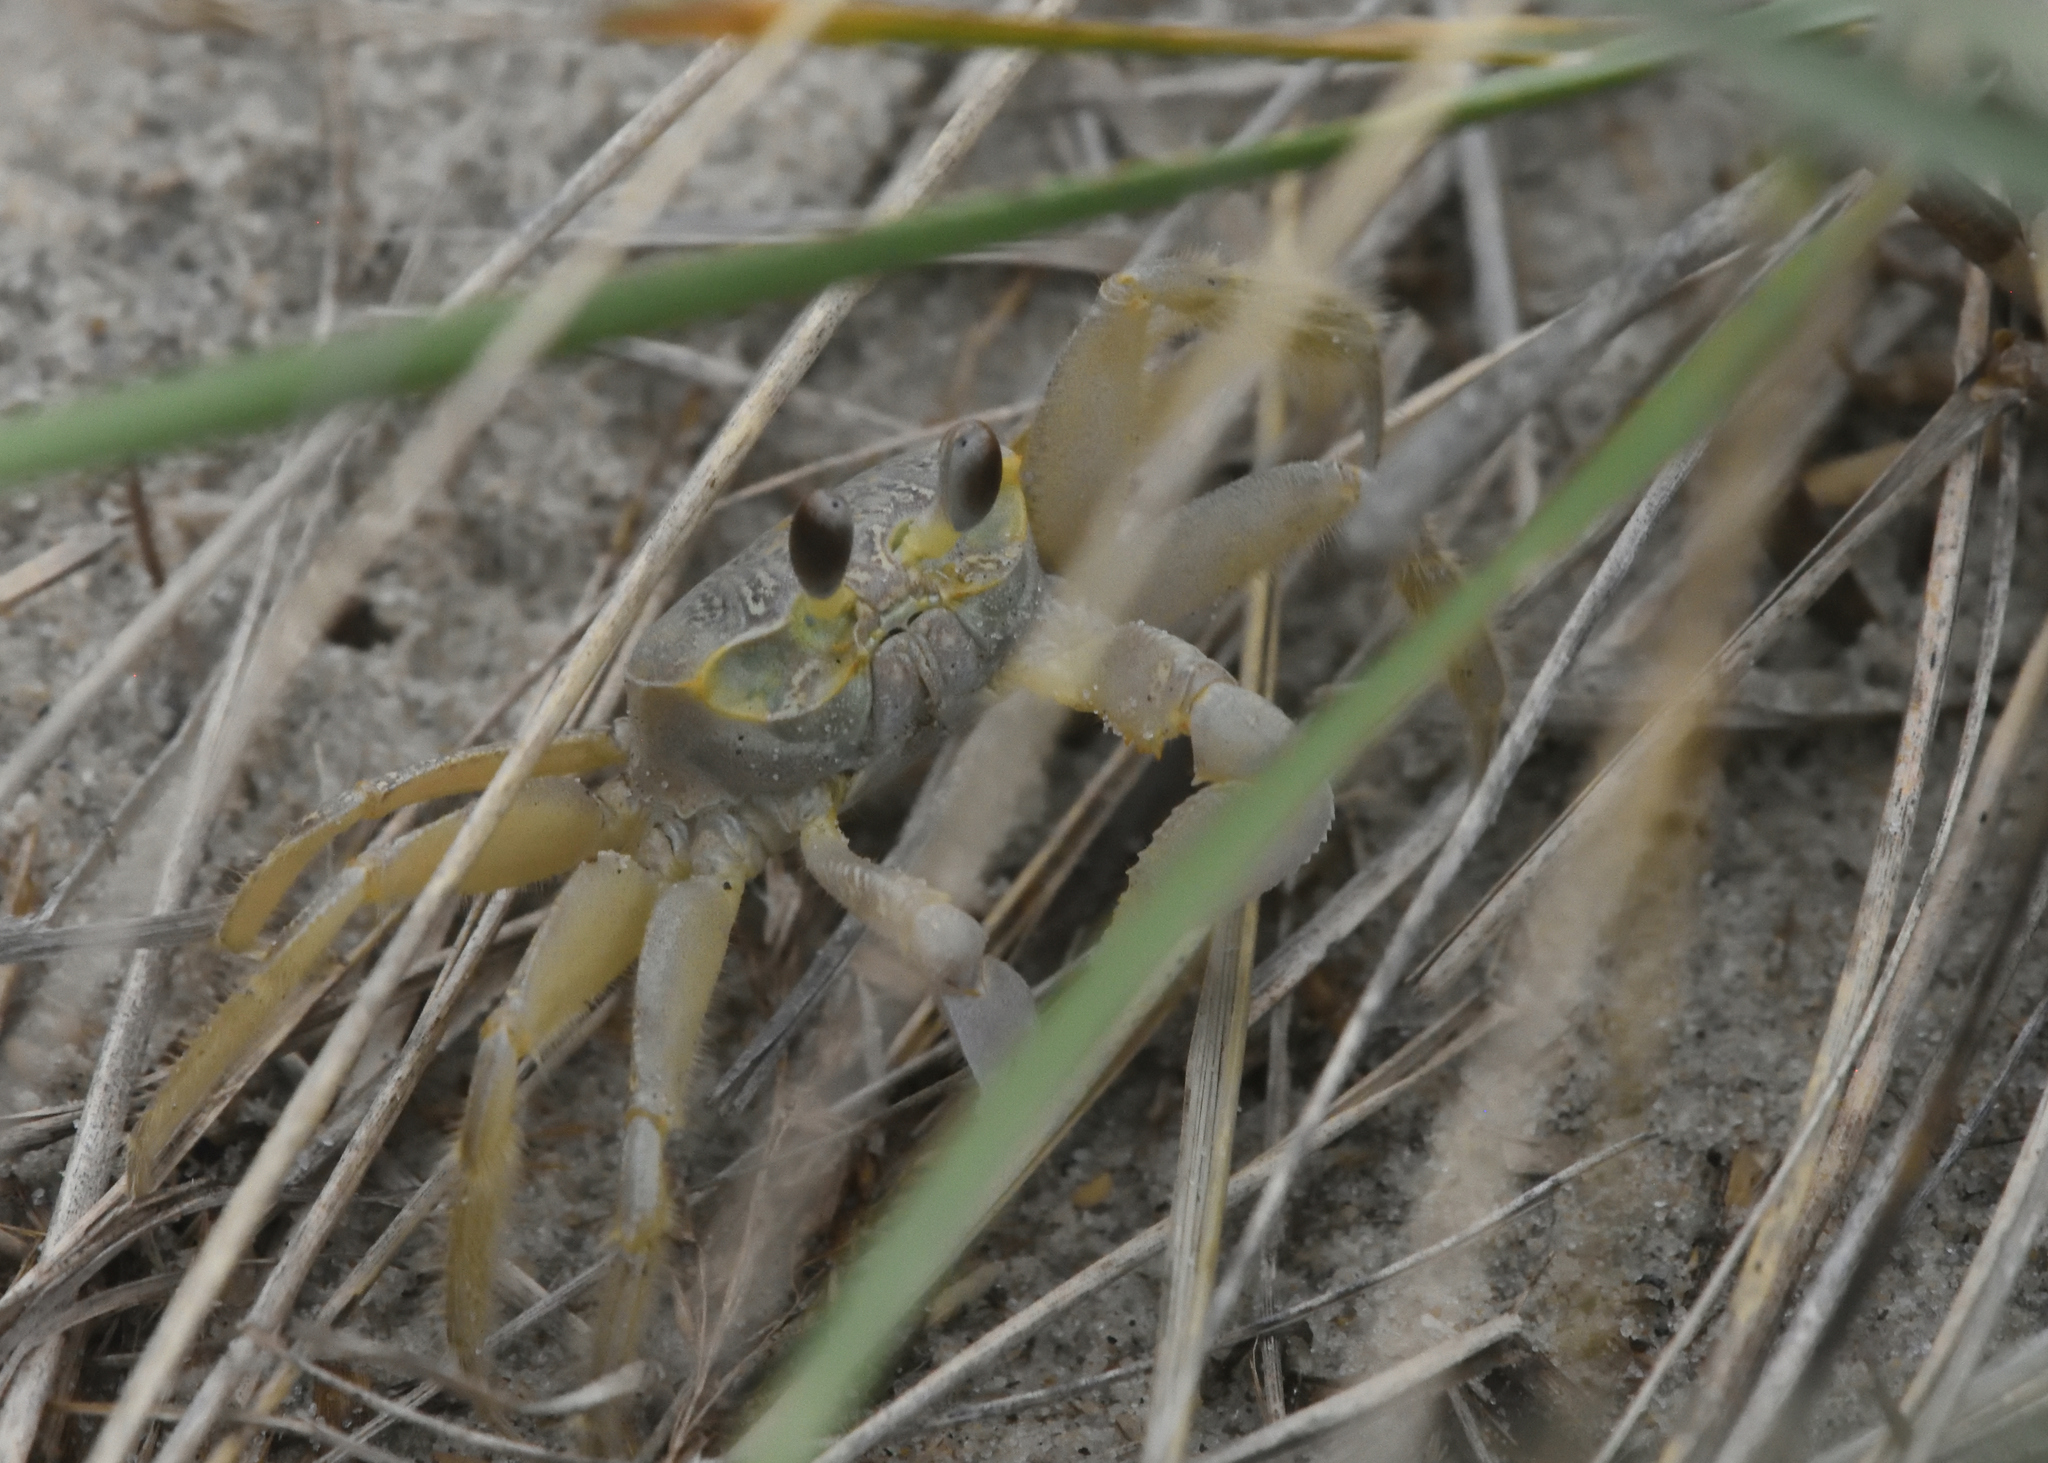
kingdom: Animalia
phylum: Arthropoda
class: Malacostraca
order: Decapoda
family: Ocypodidae
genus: Ocypode
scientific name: Ocypode quadrata
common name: Ghost crab
